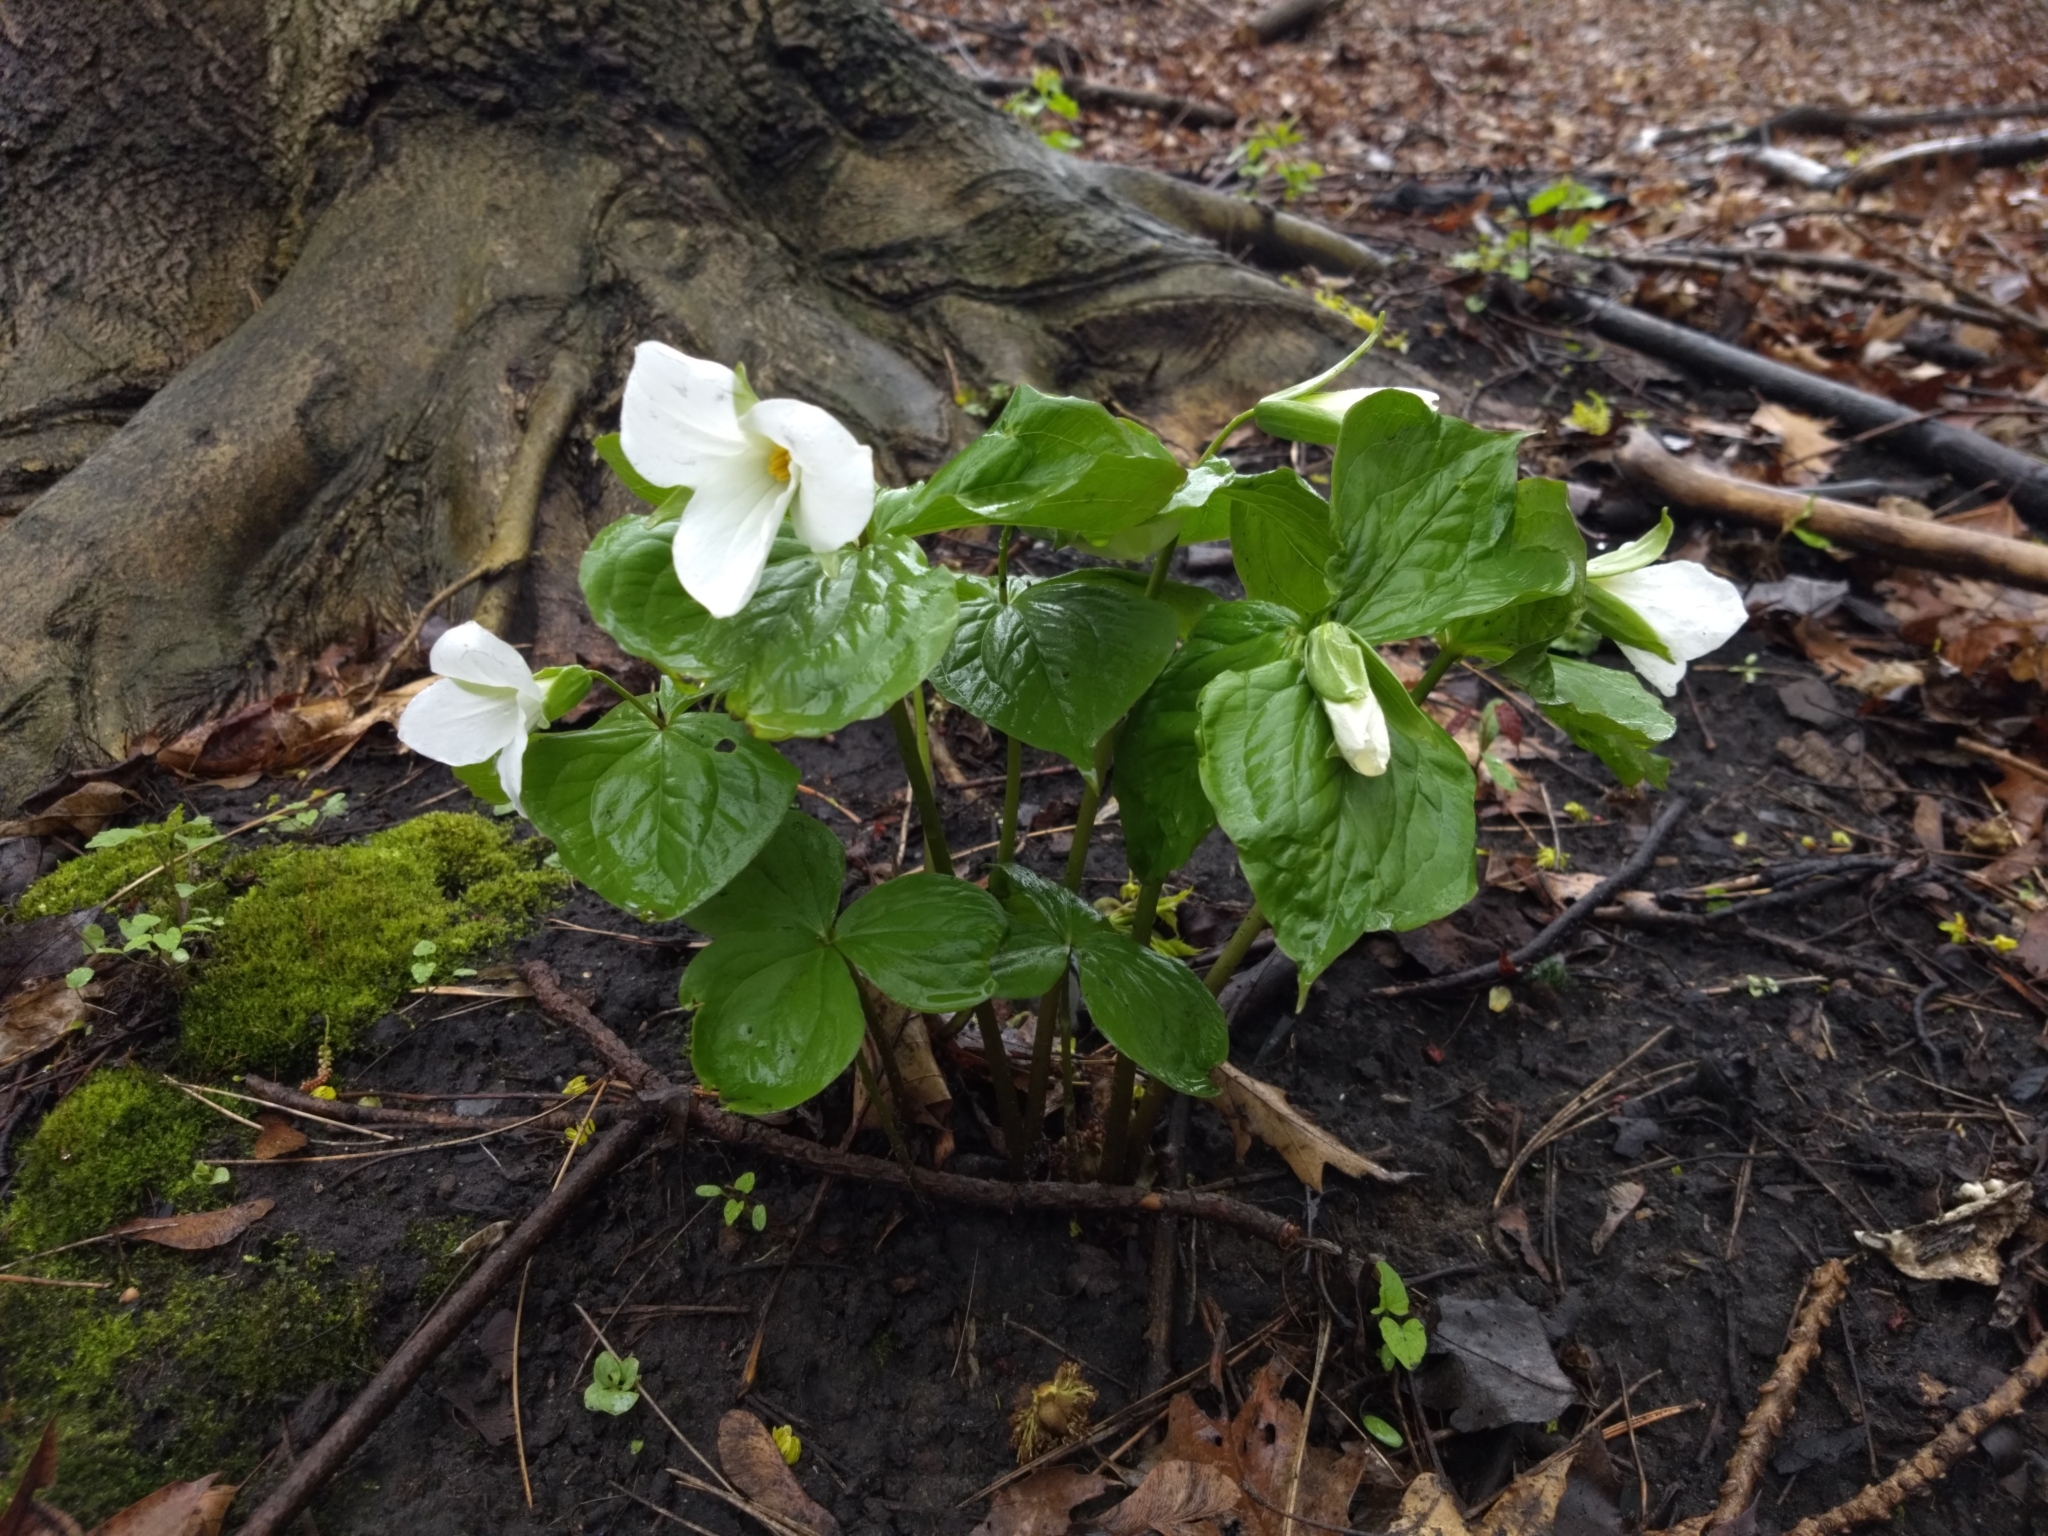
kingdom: Plantae
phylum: Tracheophyta
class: Liliopsida
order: Liliales
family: Melanthiaceae
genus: Trillium
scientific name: Trillium grandiflorum
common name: Great white trillium
